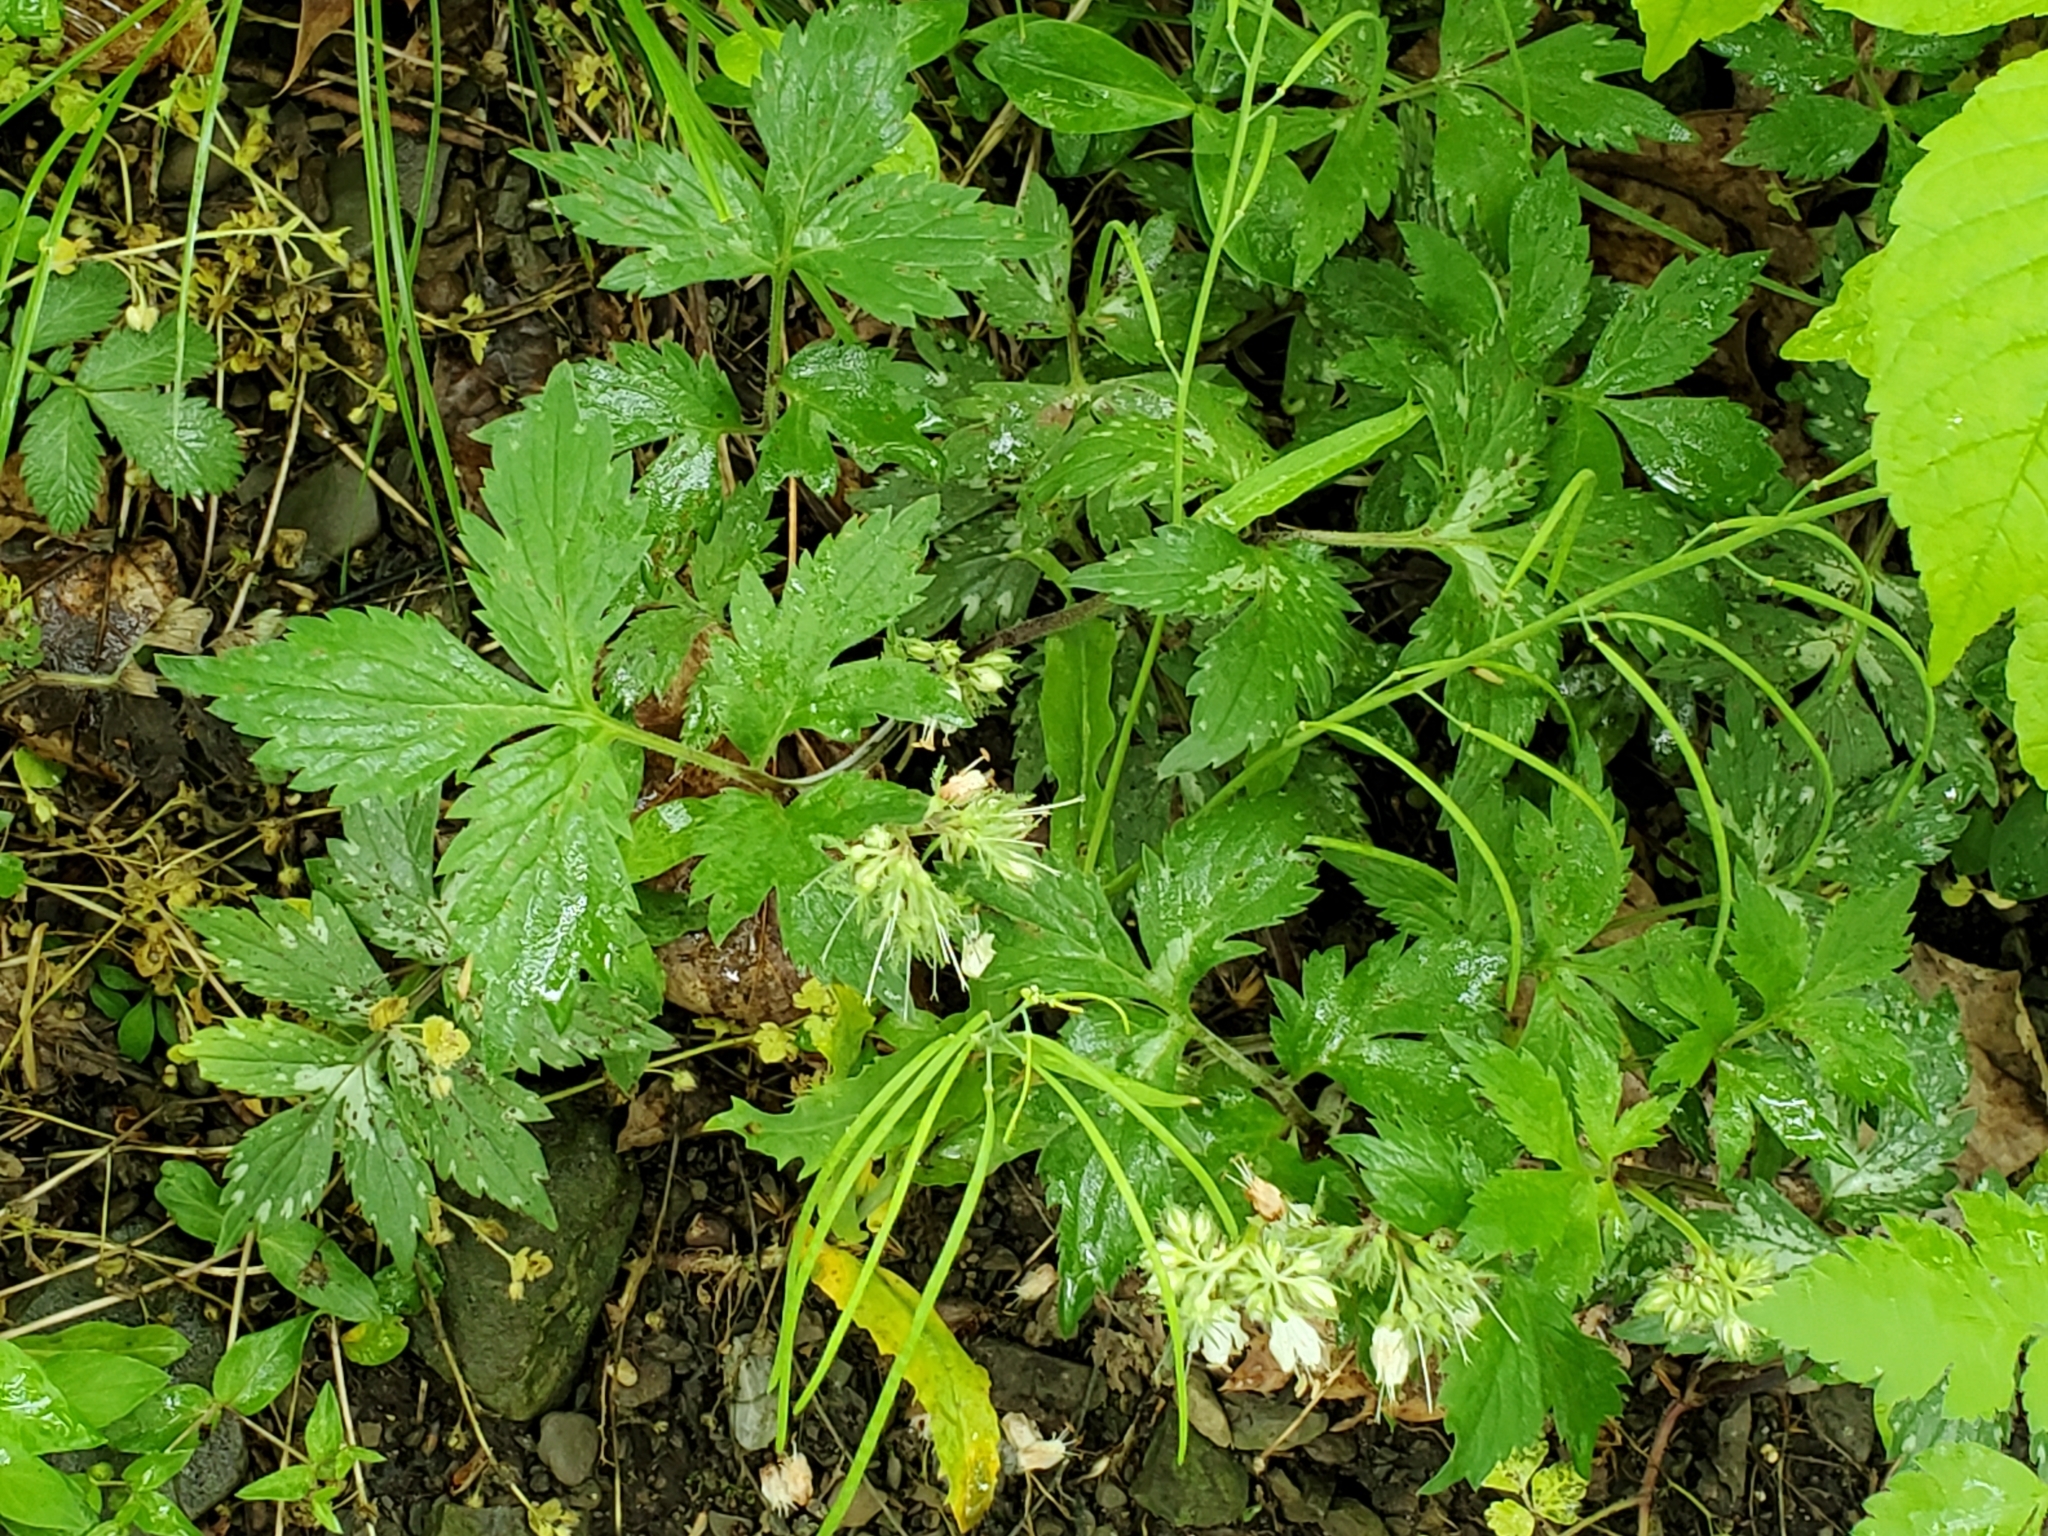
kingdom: Plantae
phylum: Tracheophyta
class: Magnoliopsida
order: Boraginales
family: Hydrophyllaceae
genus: Hydrophyllum
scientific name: Hydrophyllum virginianum
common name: Virginia waterleaf
